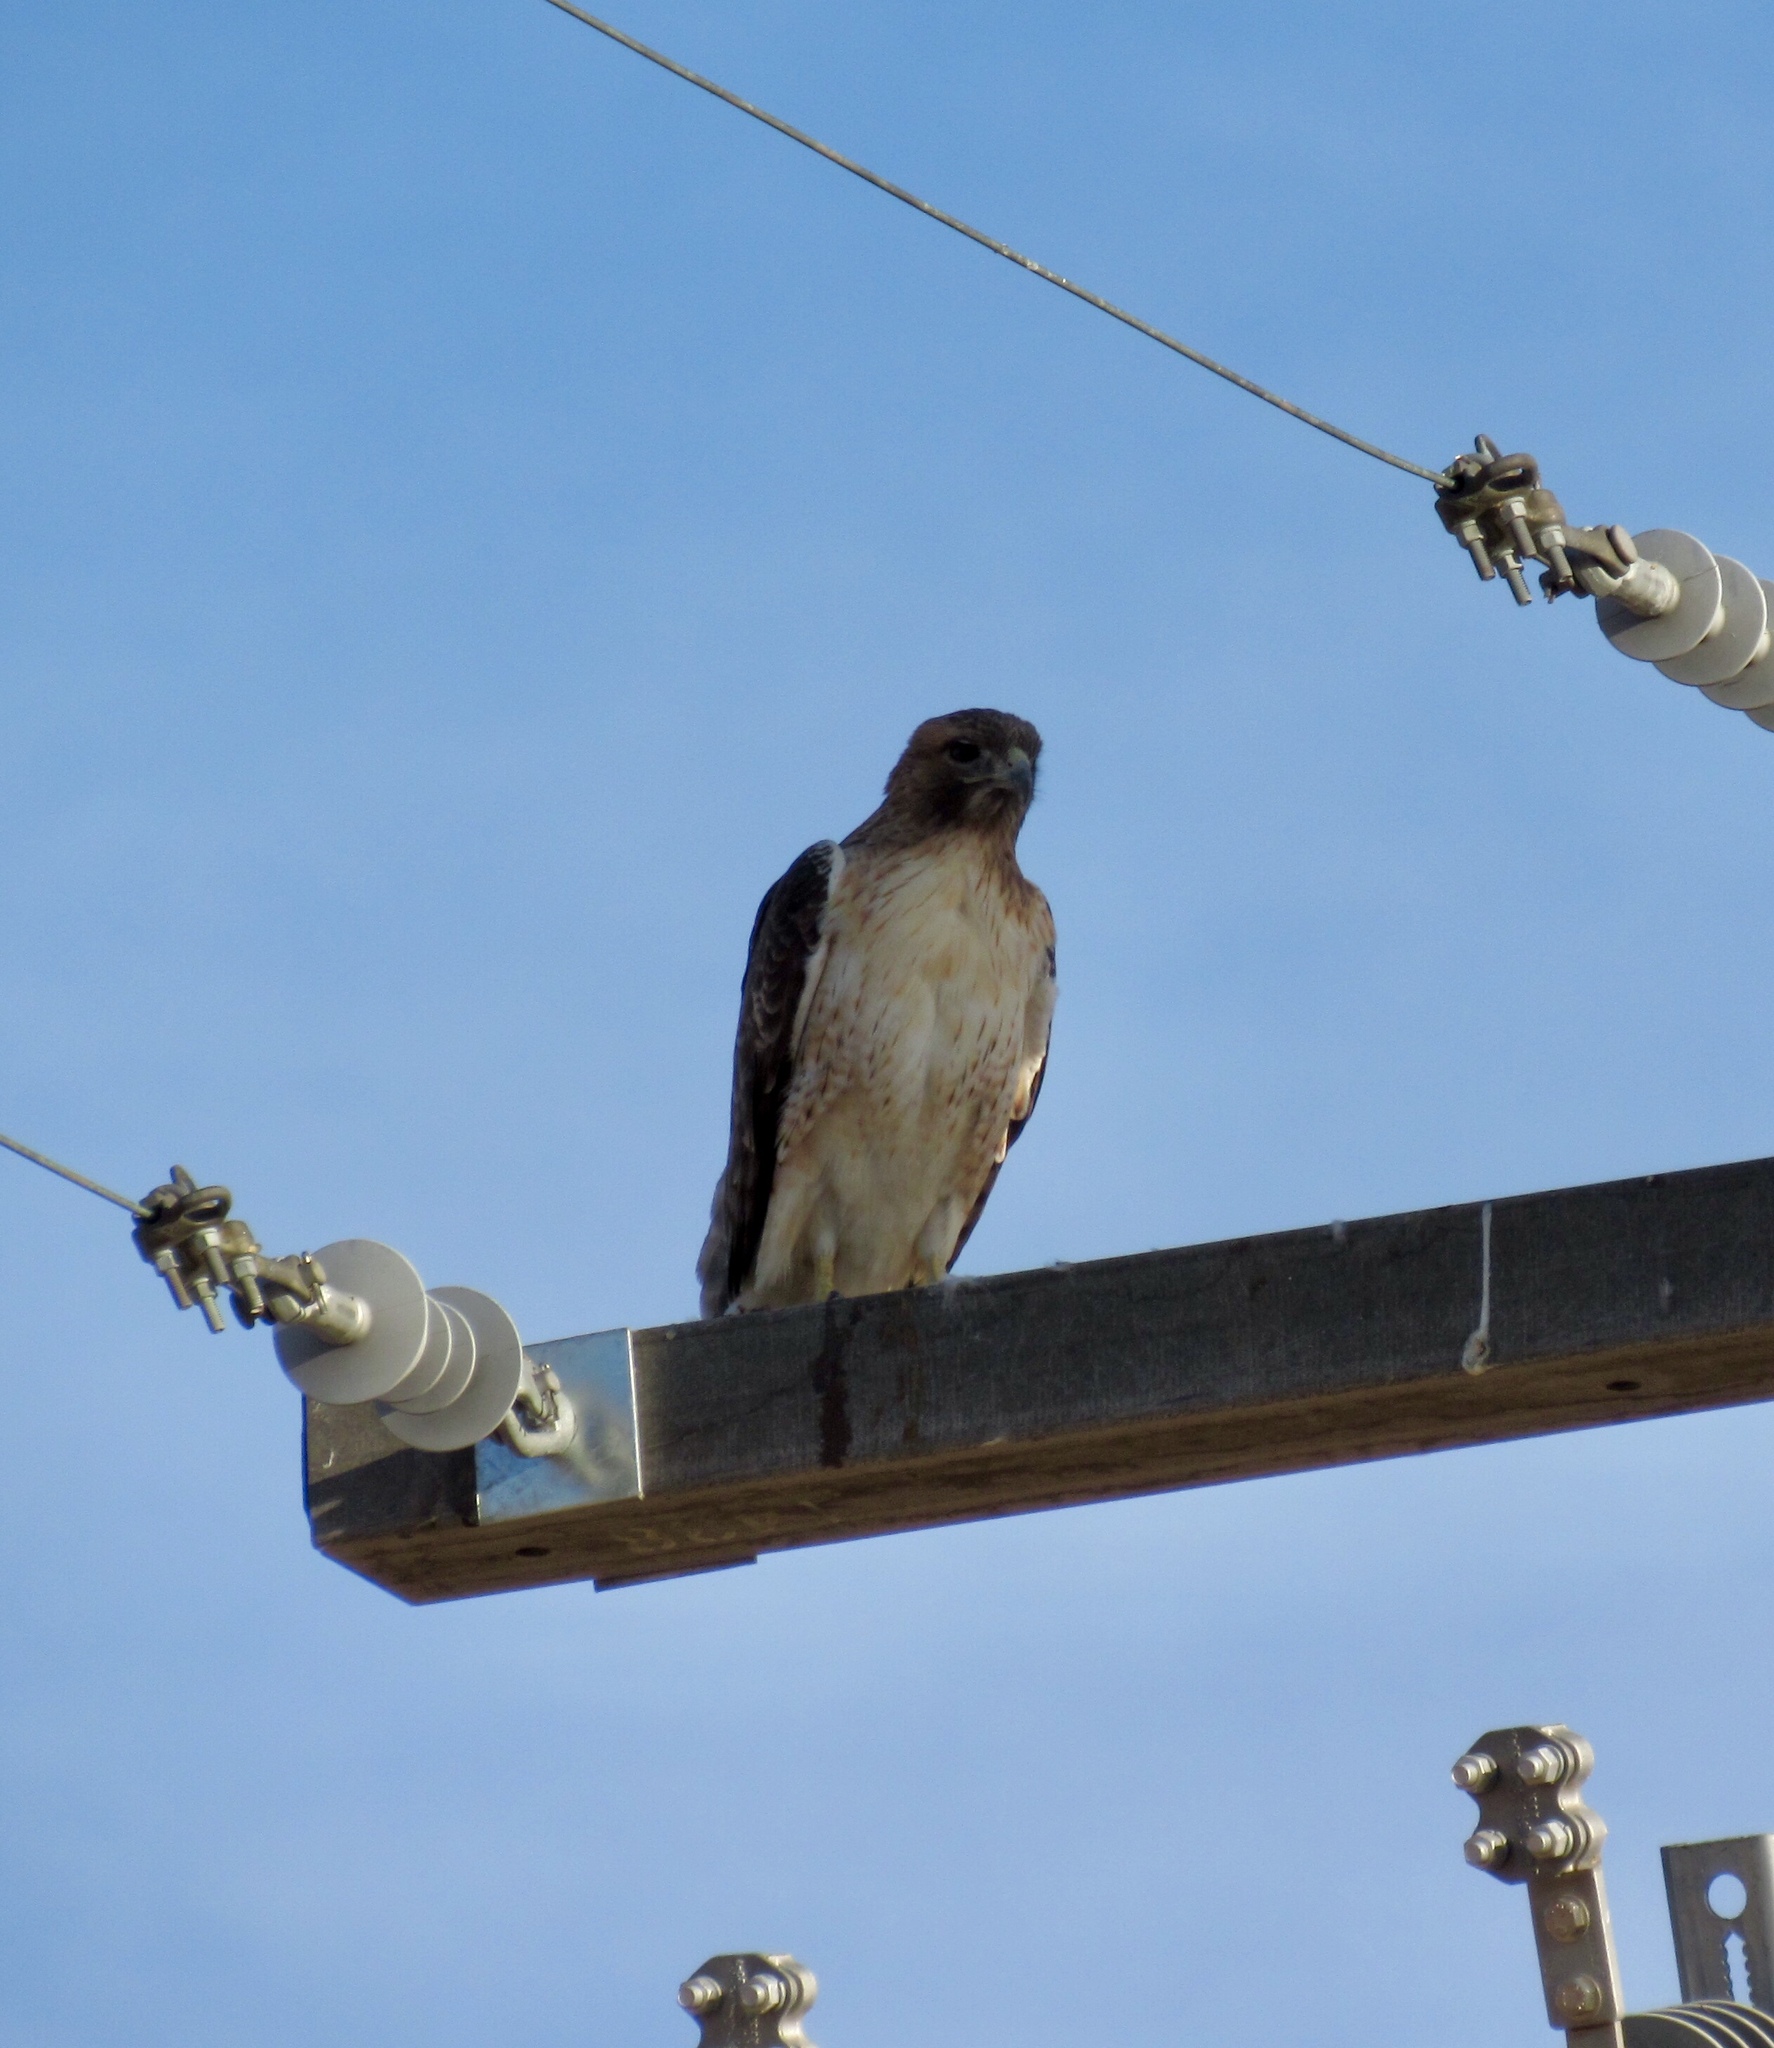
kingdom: Animalia
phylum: Chordata
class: Aves
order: Accipitriformes
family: Accipitridae
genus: Buteo
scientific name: Buteo jamaicensis
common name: Red-tailed hawk
